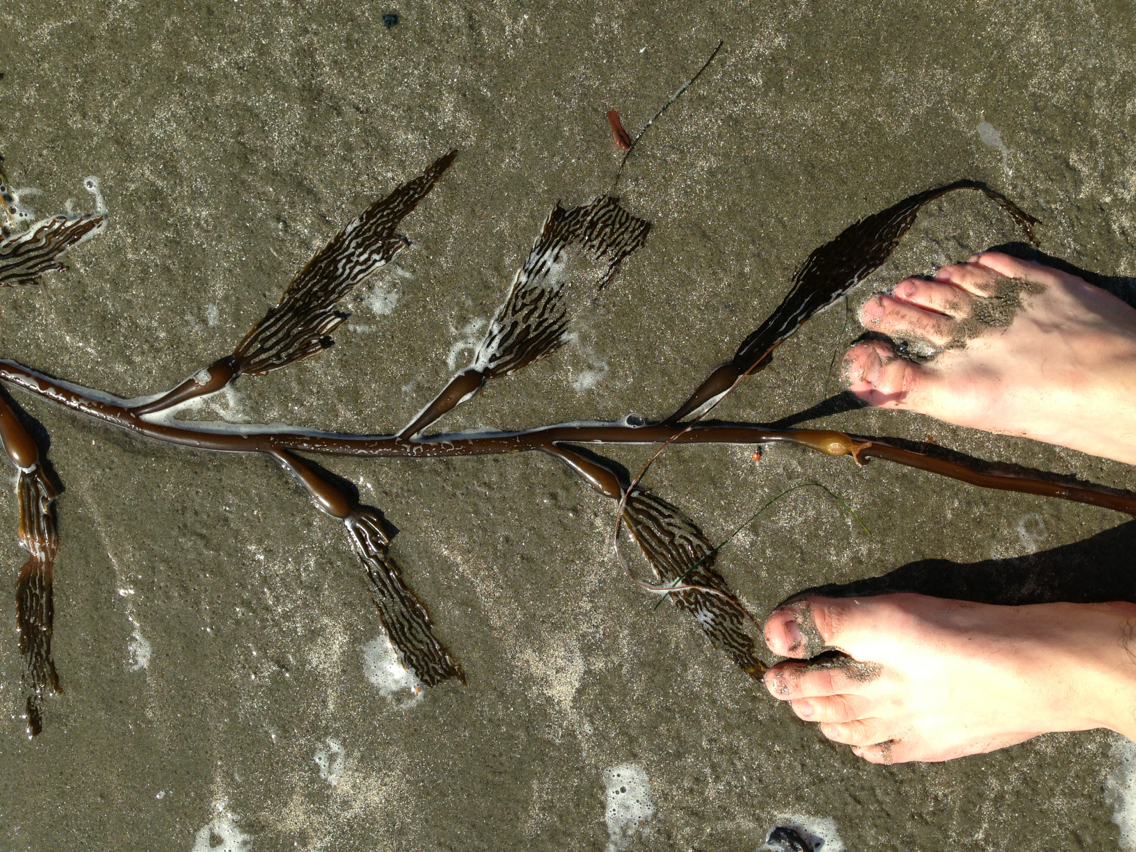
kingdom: Chromista
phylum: Ochrophyta
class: Phaeophyceae
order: Laminariales
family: Laminariaceae
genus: Macrocystis
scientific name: Macrocystis pyrifera
